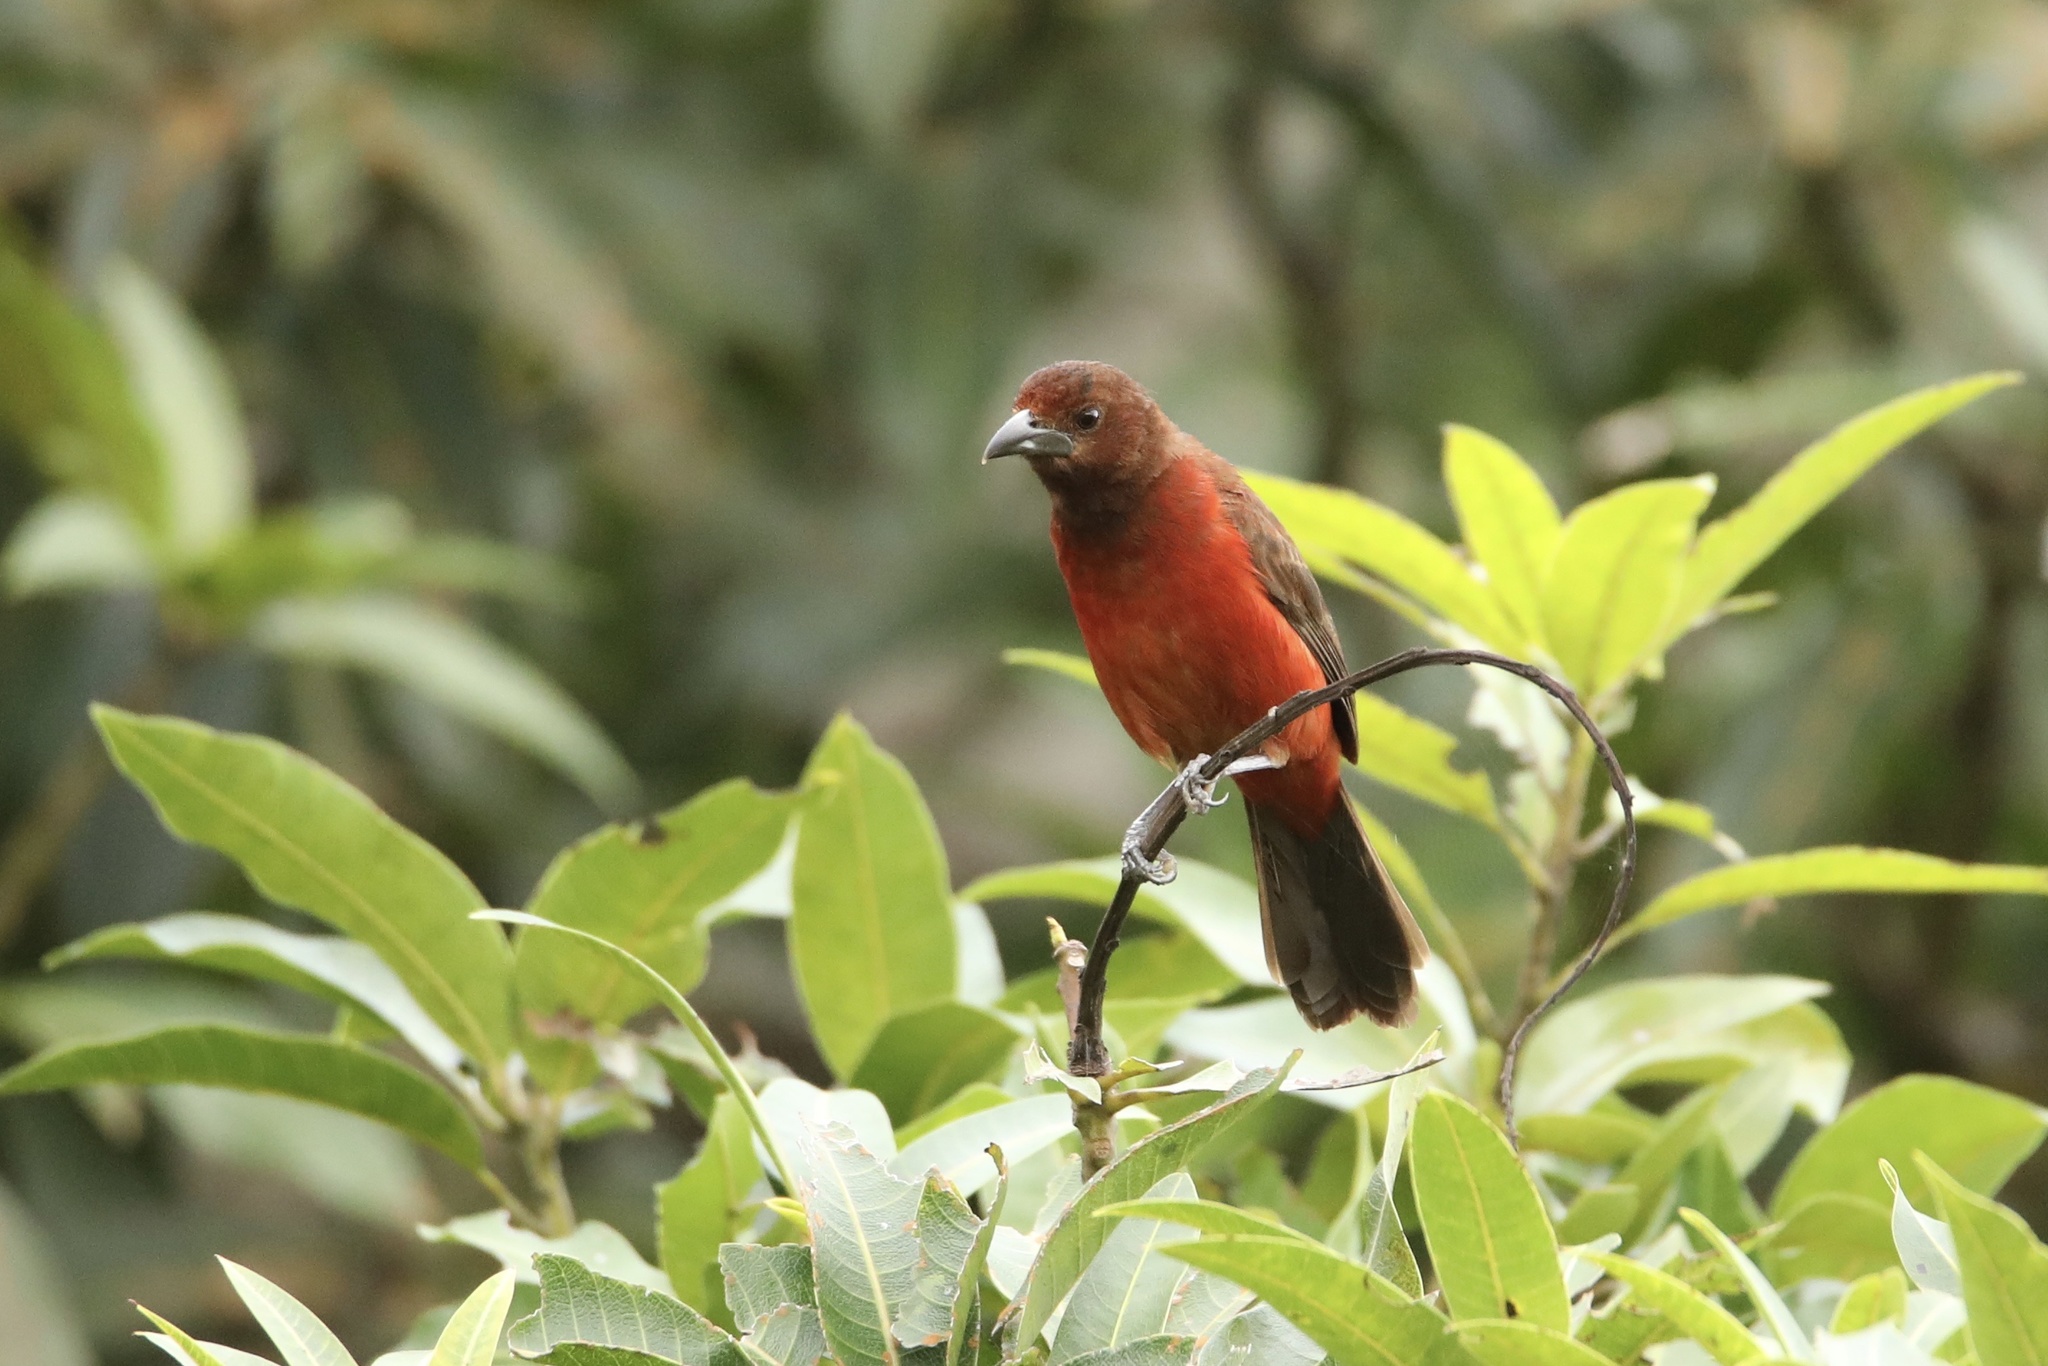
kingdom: Animalia
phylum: Chordata
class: Aves
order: Passeriformes
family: Thraupidae
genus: Ramphocelus
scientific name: Ramphocelus dimidiatus
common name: Crimson-backed tanager
